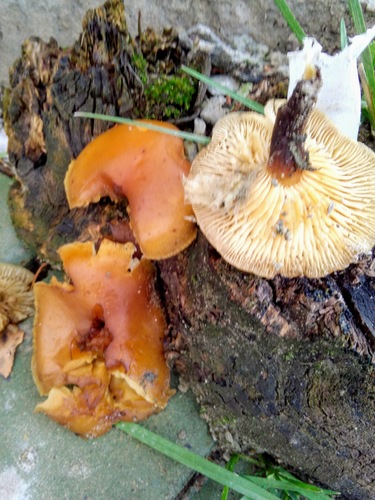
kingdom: Fungi
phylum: Basidiomycota
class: Agaricomycetes
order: Agaricales
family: Physalacriaceae
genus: Flammulina
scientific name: Flammulina velutipes
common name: Velvet shank
